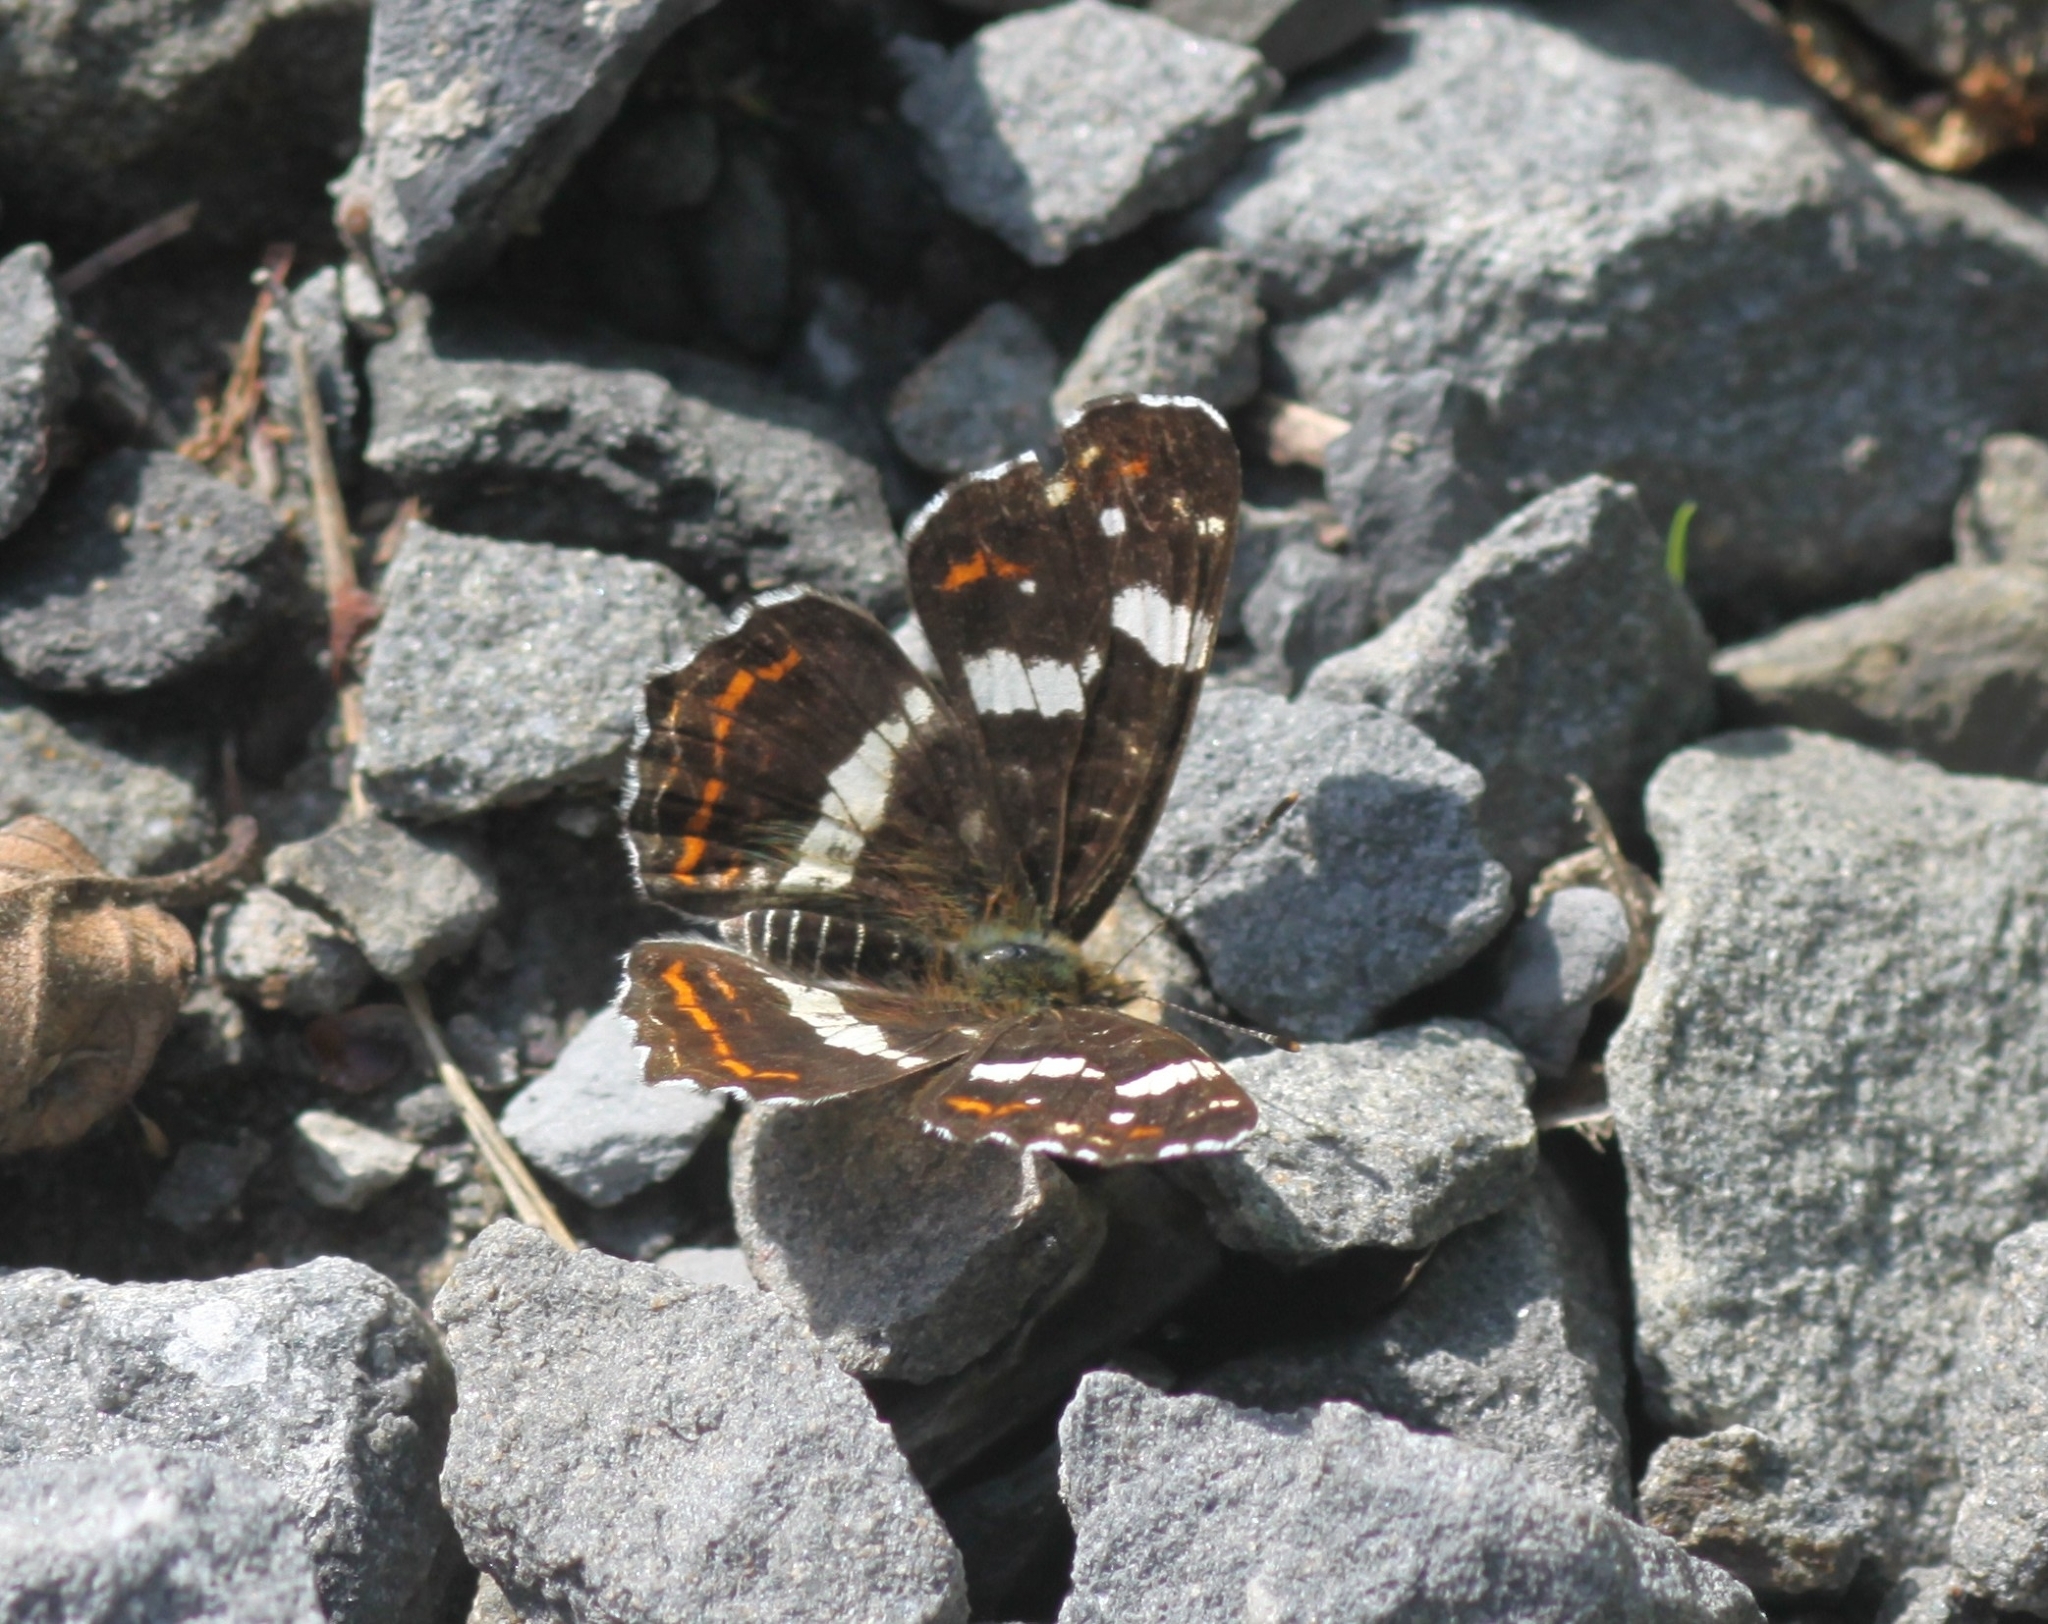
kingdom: Animalia
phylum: Arthropoda
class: Insecta
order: Lepidoptera
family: Nymphalidae
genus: Araschnia
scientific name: Araschnia levana
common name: Map butterfly
